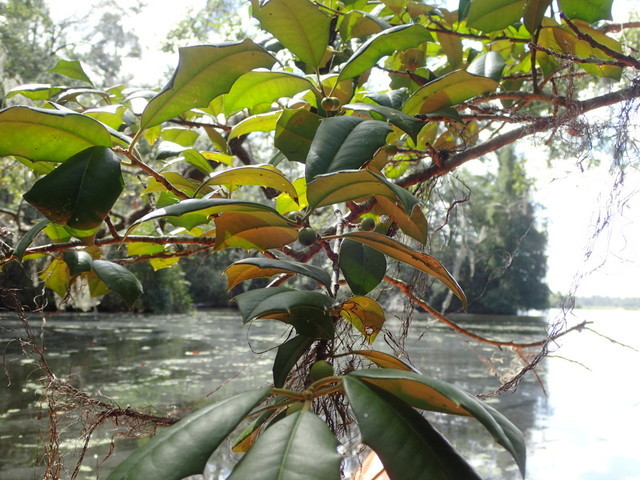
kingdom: Plantae
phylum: Tracheophyta
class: Magnoliopsida
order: Aquifoliales
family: Aquifoliaceae
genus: Ilex
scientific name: Ilex opaca
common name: American holly
